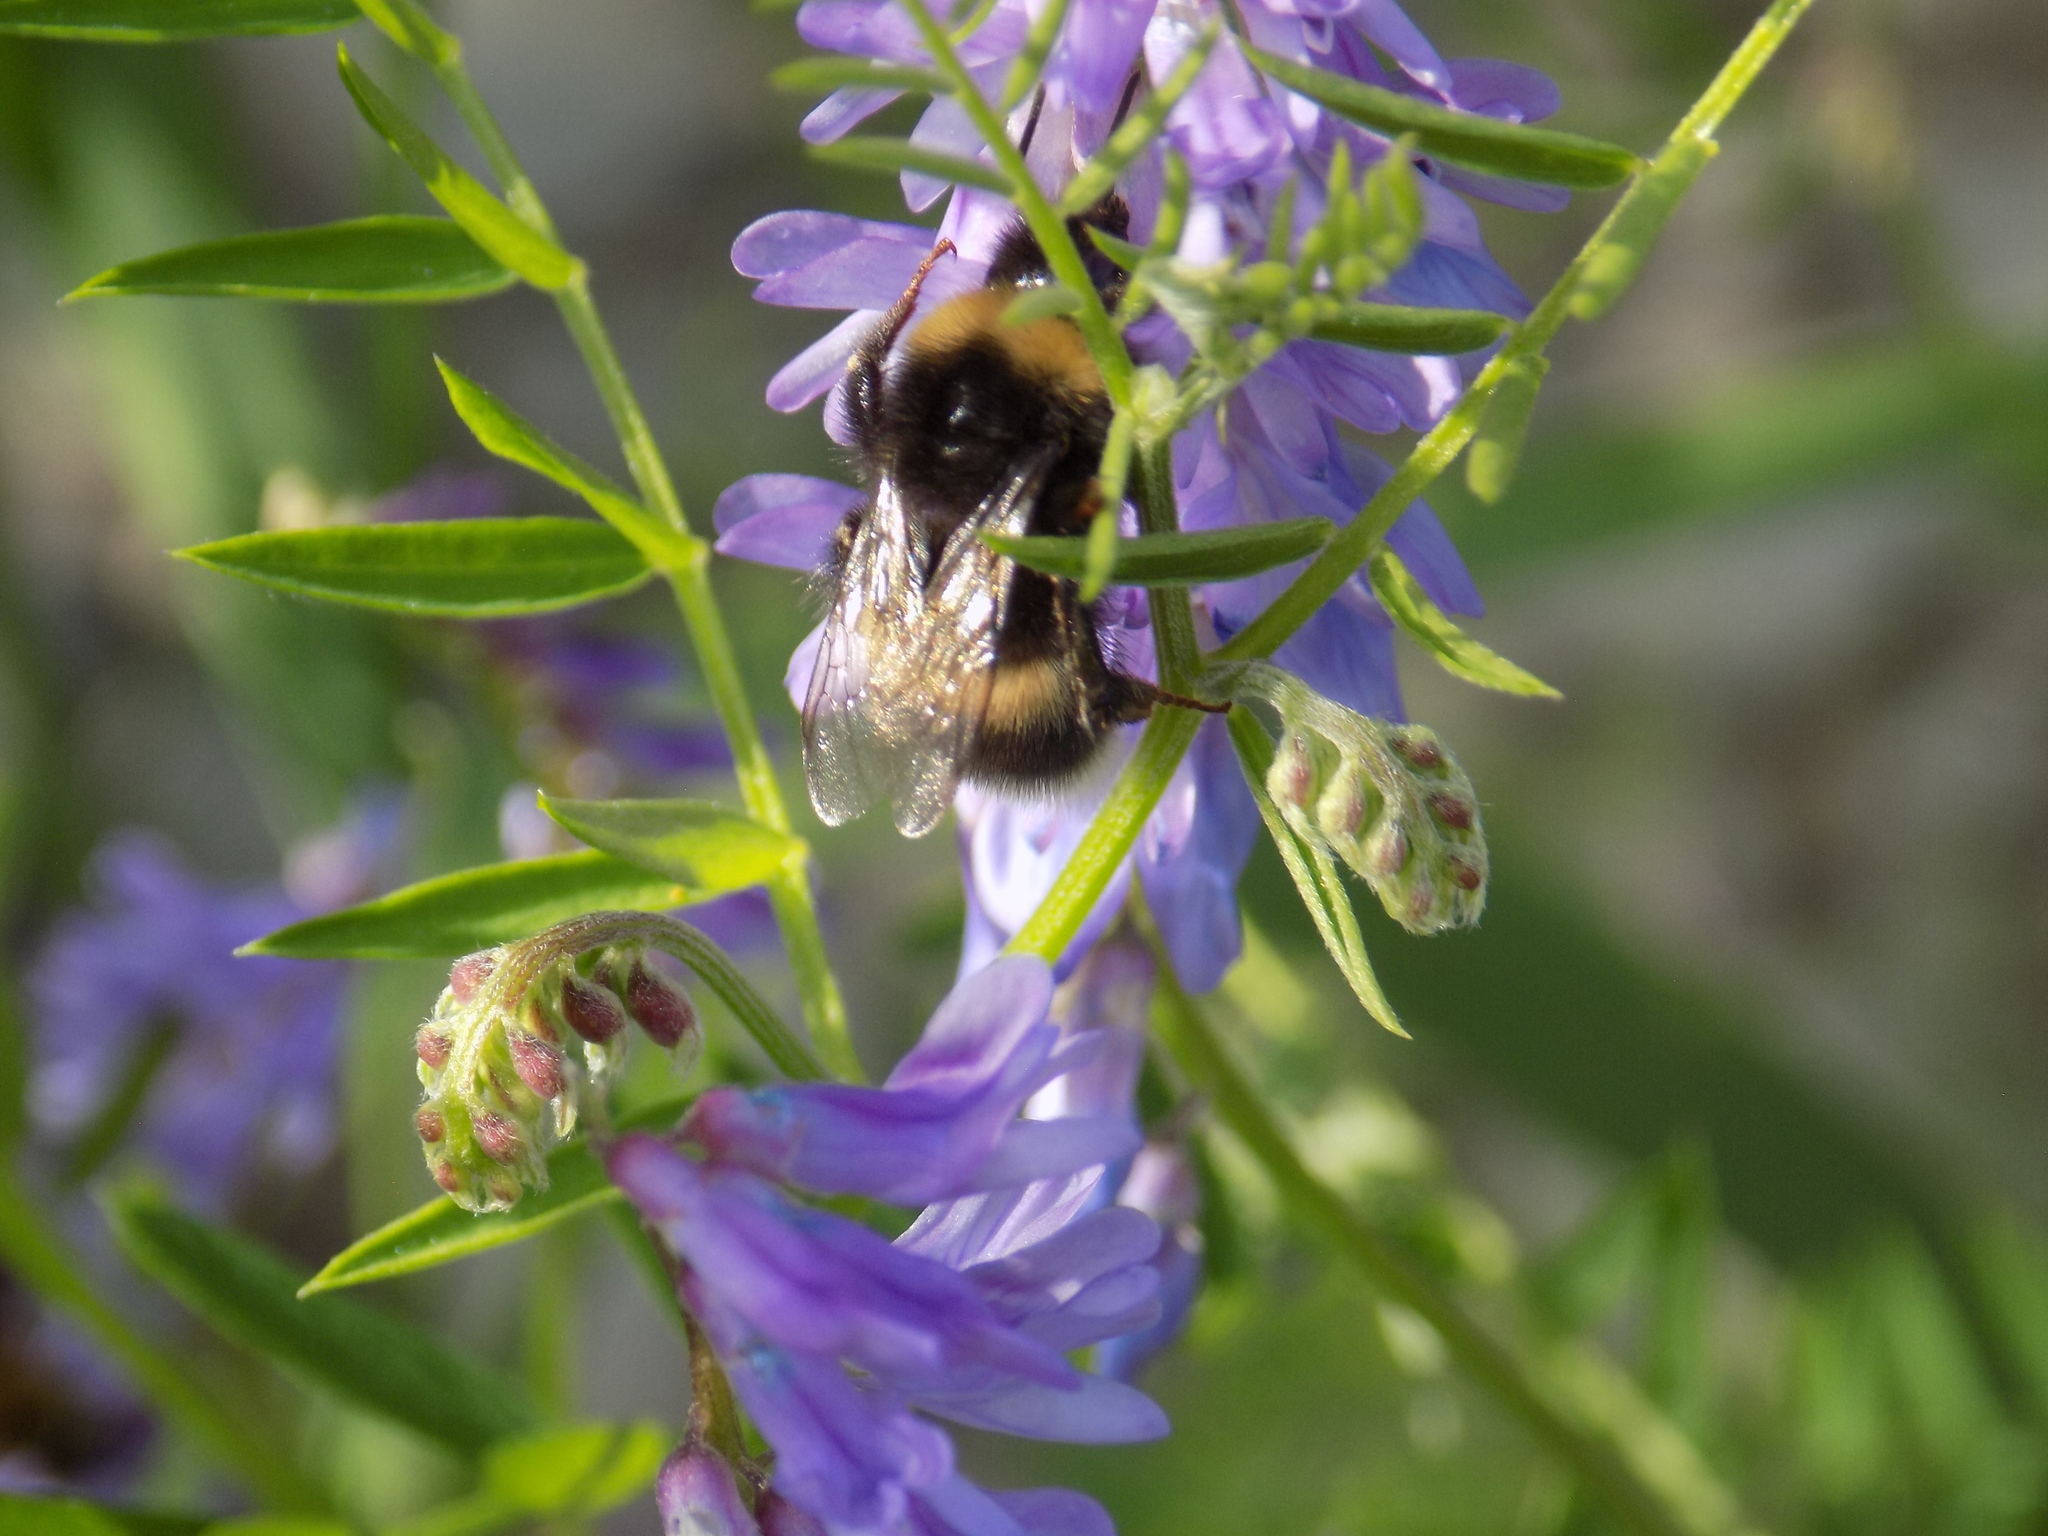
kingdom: Animalia
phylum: Arthropoda
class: Insecta
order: Hymenoptera
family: Apidae
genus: Bombus
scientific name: Bombus
